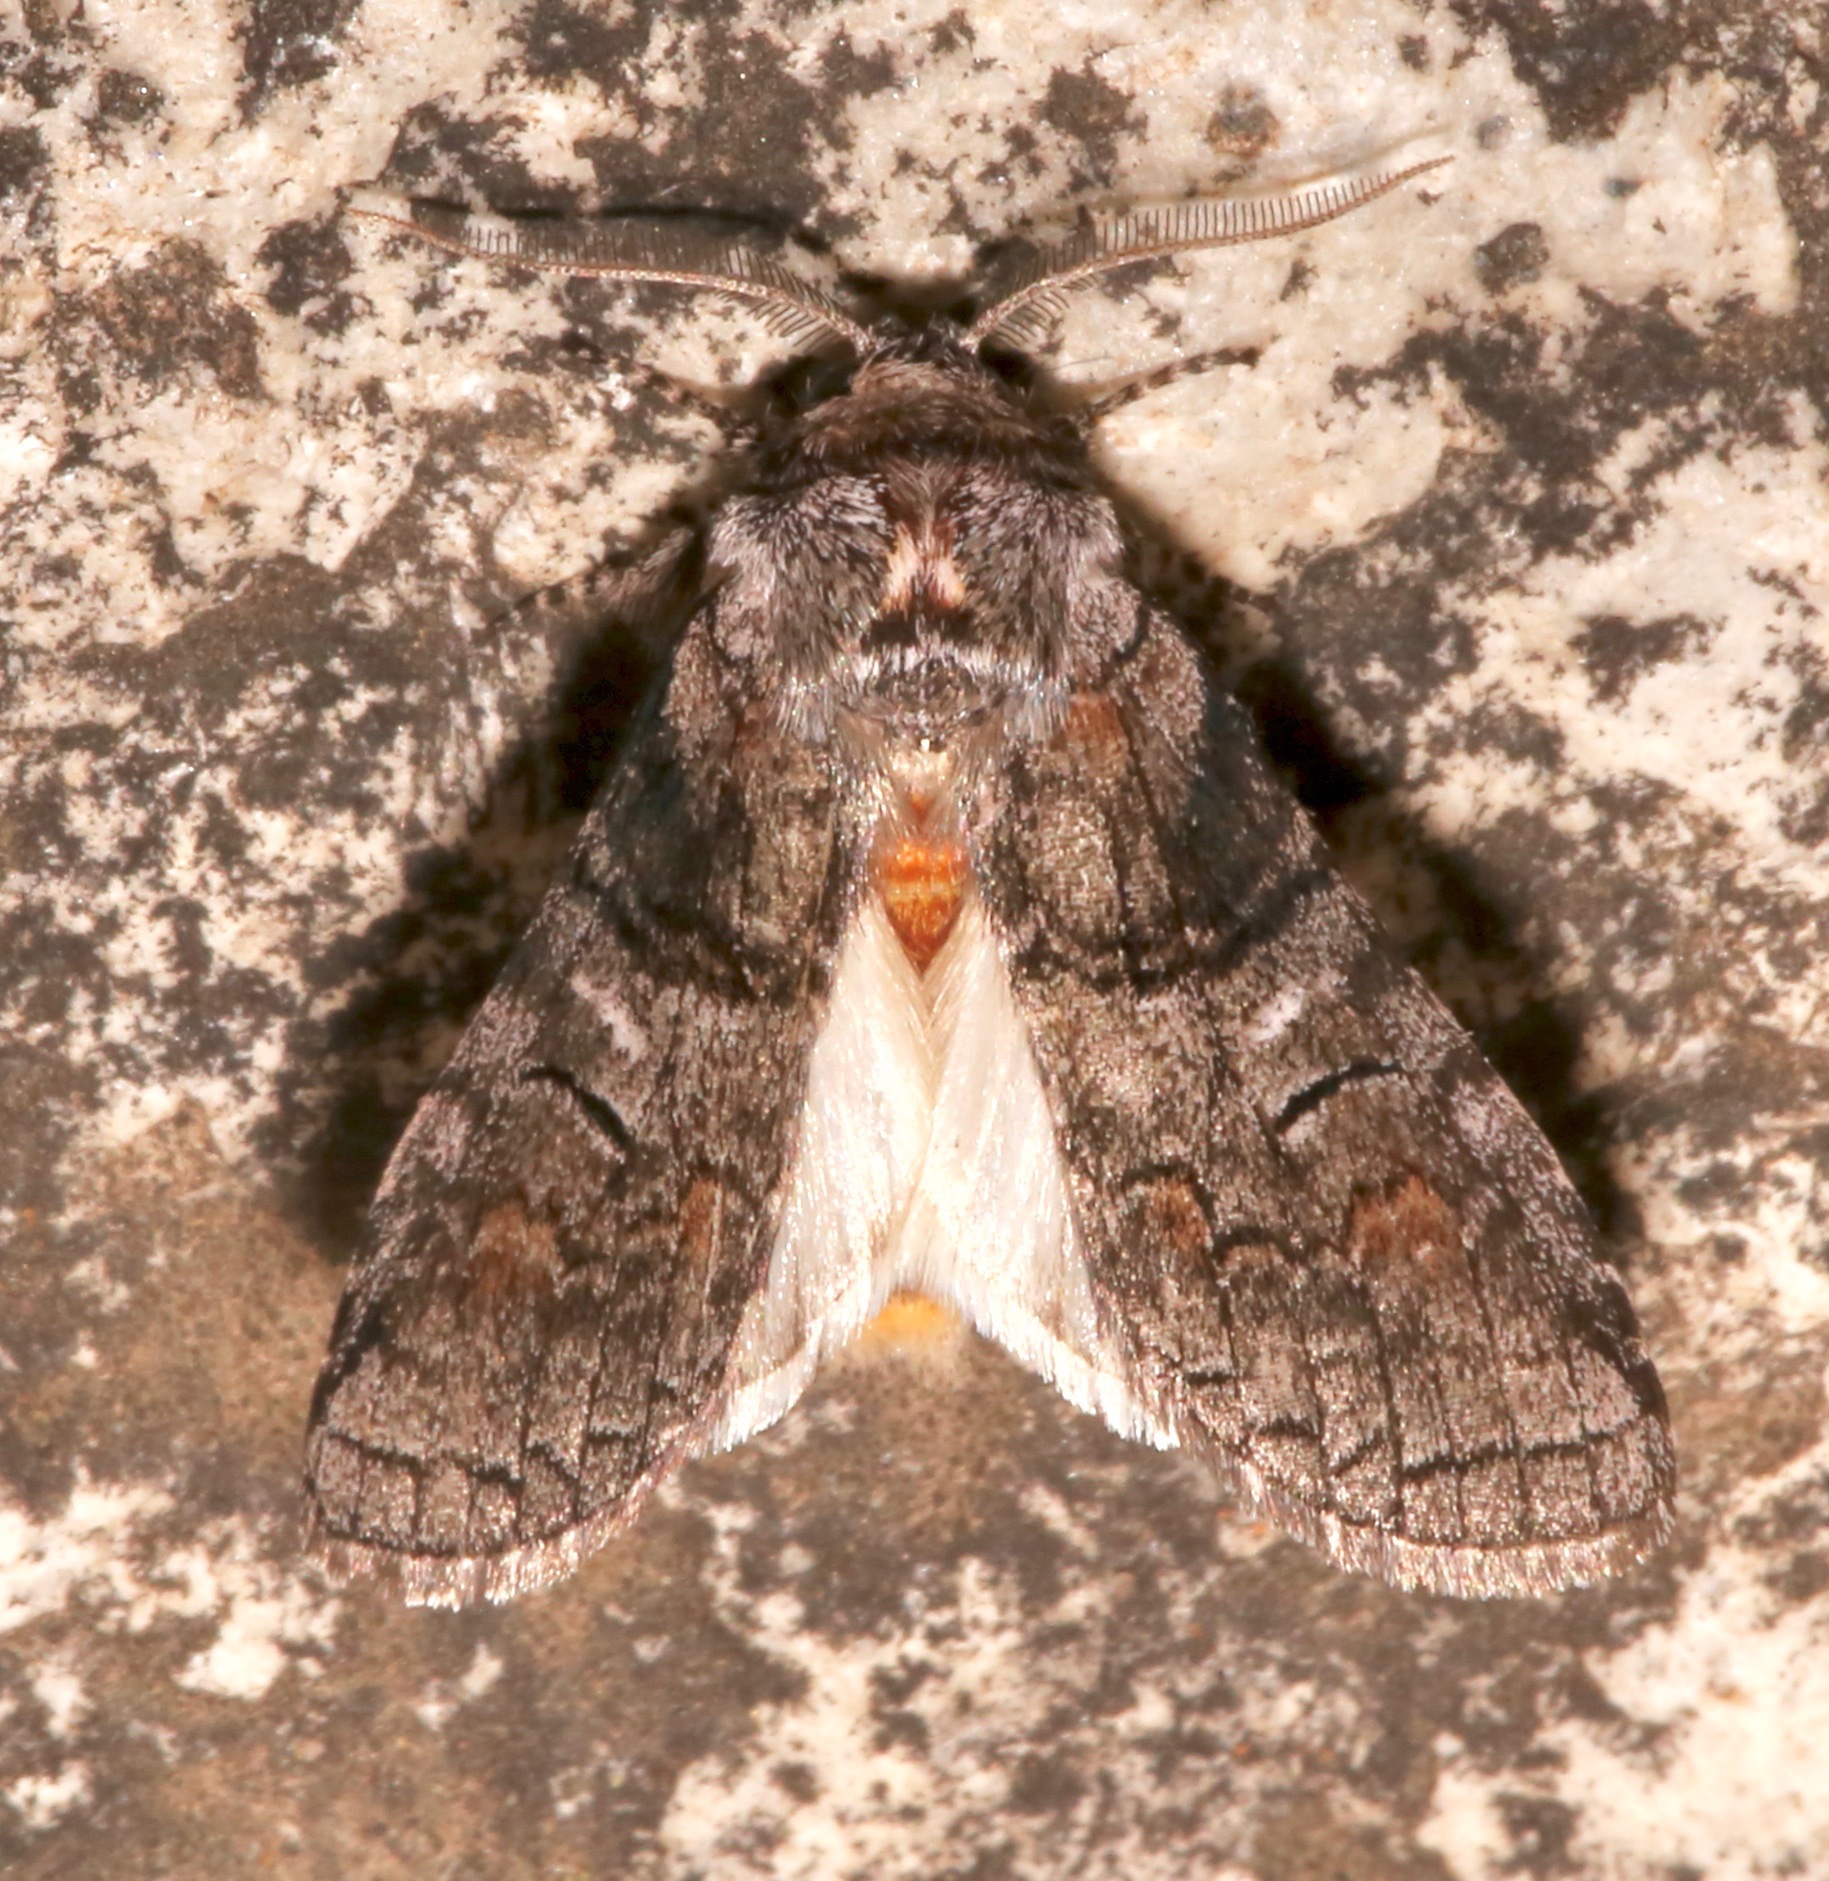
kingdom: Animalia
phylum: Arthropoda
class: Insecta
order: Lepidoptera
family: Notodontidae
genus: Afilia
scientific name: Afilia oslari
